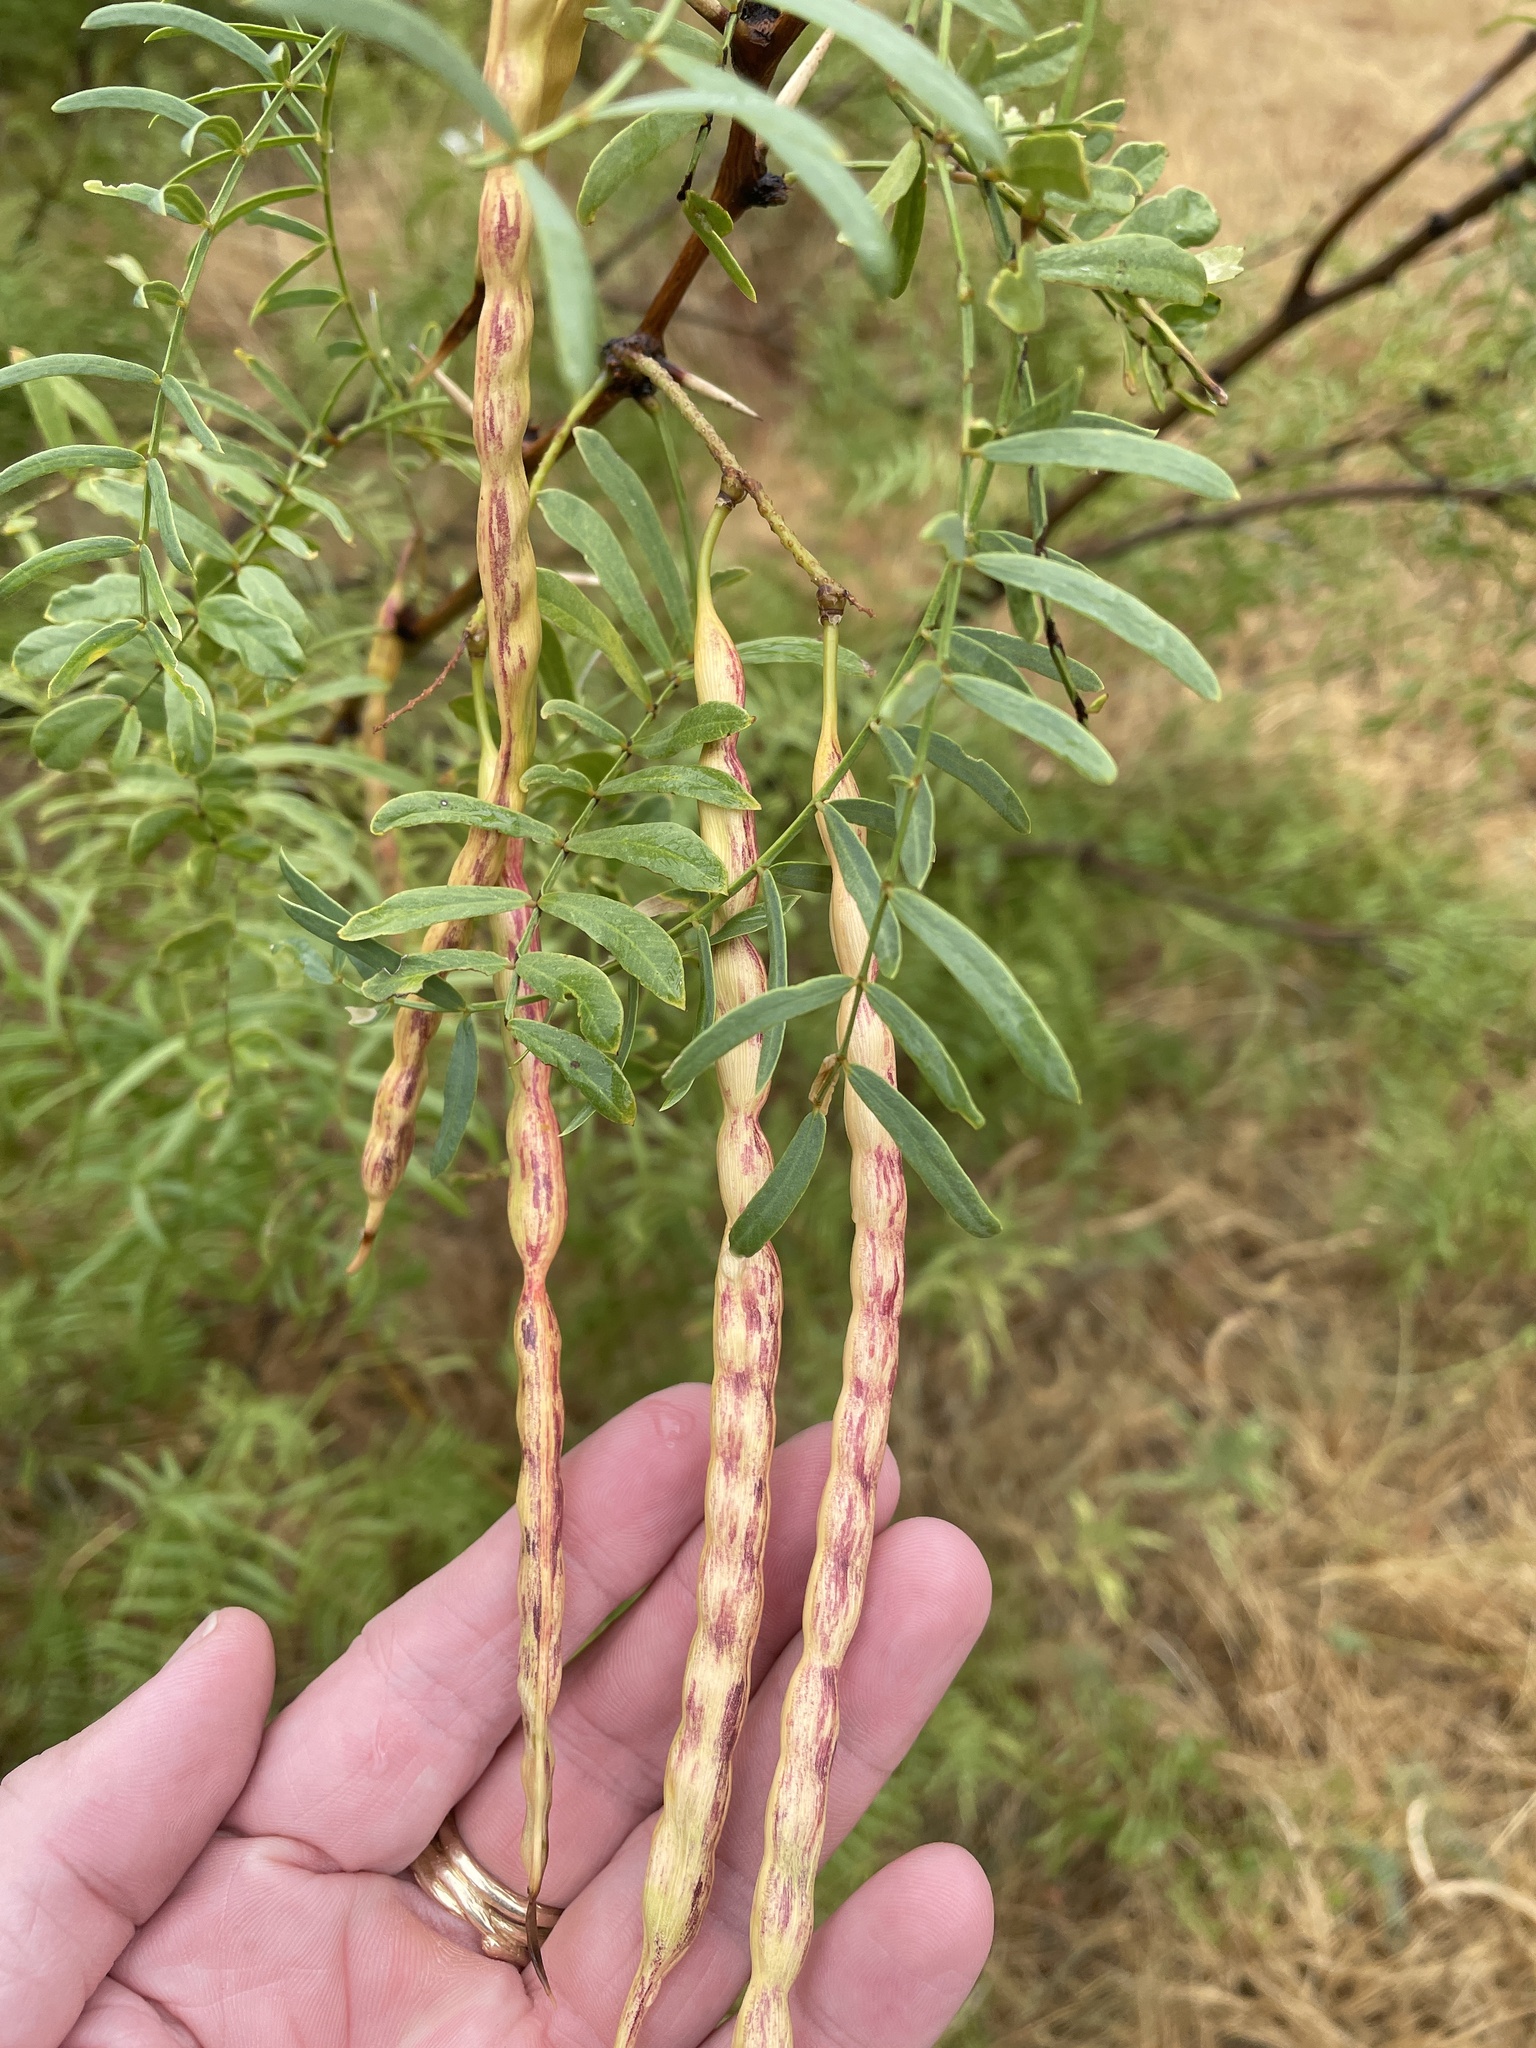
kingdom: Plantae
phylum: Tracheophyta
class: Magnoliopsida
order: Fabales
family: Fabaceae
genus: Prosopis
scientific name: Prosopis glandulosa
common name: Honey mesquite
